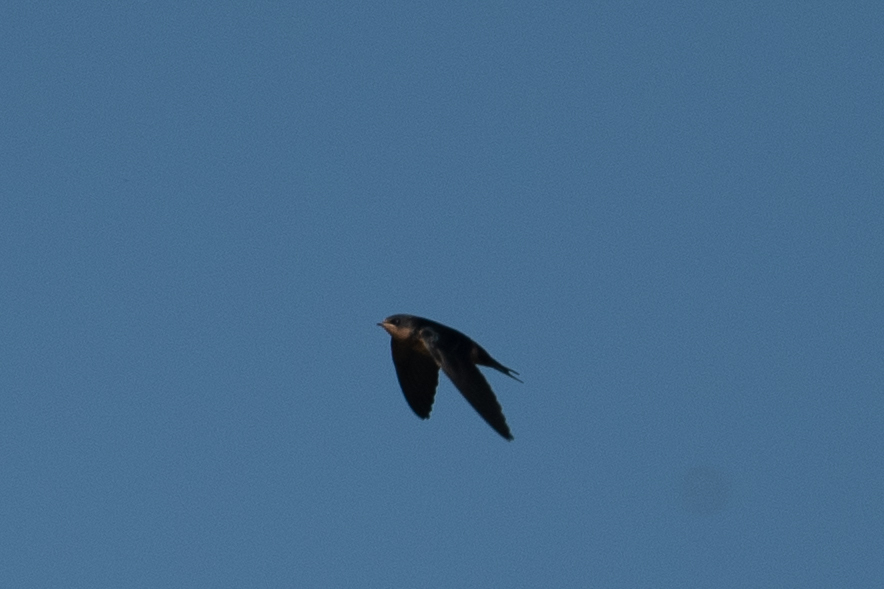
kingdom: Animalia
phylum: Chordata
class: Aves
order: Passeriformes
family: Hirundinidae
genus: Hirundo
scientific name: Hirundo rustica
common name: Barn swallow
